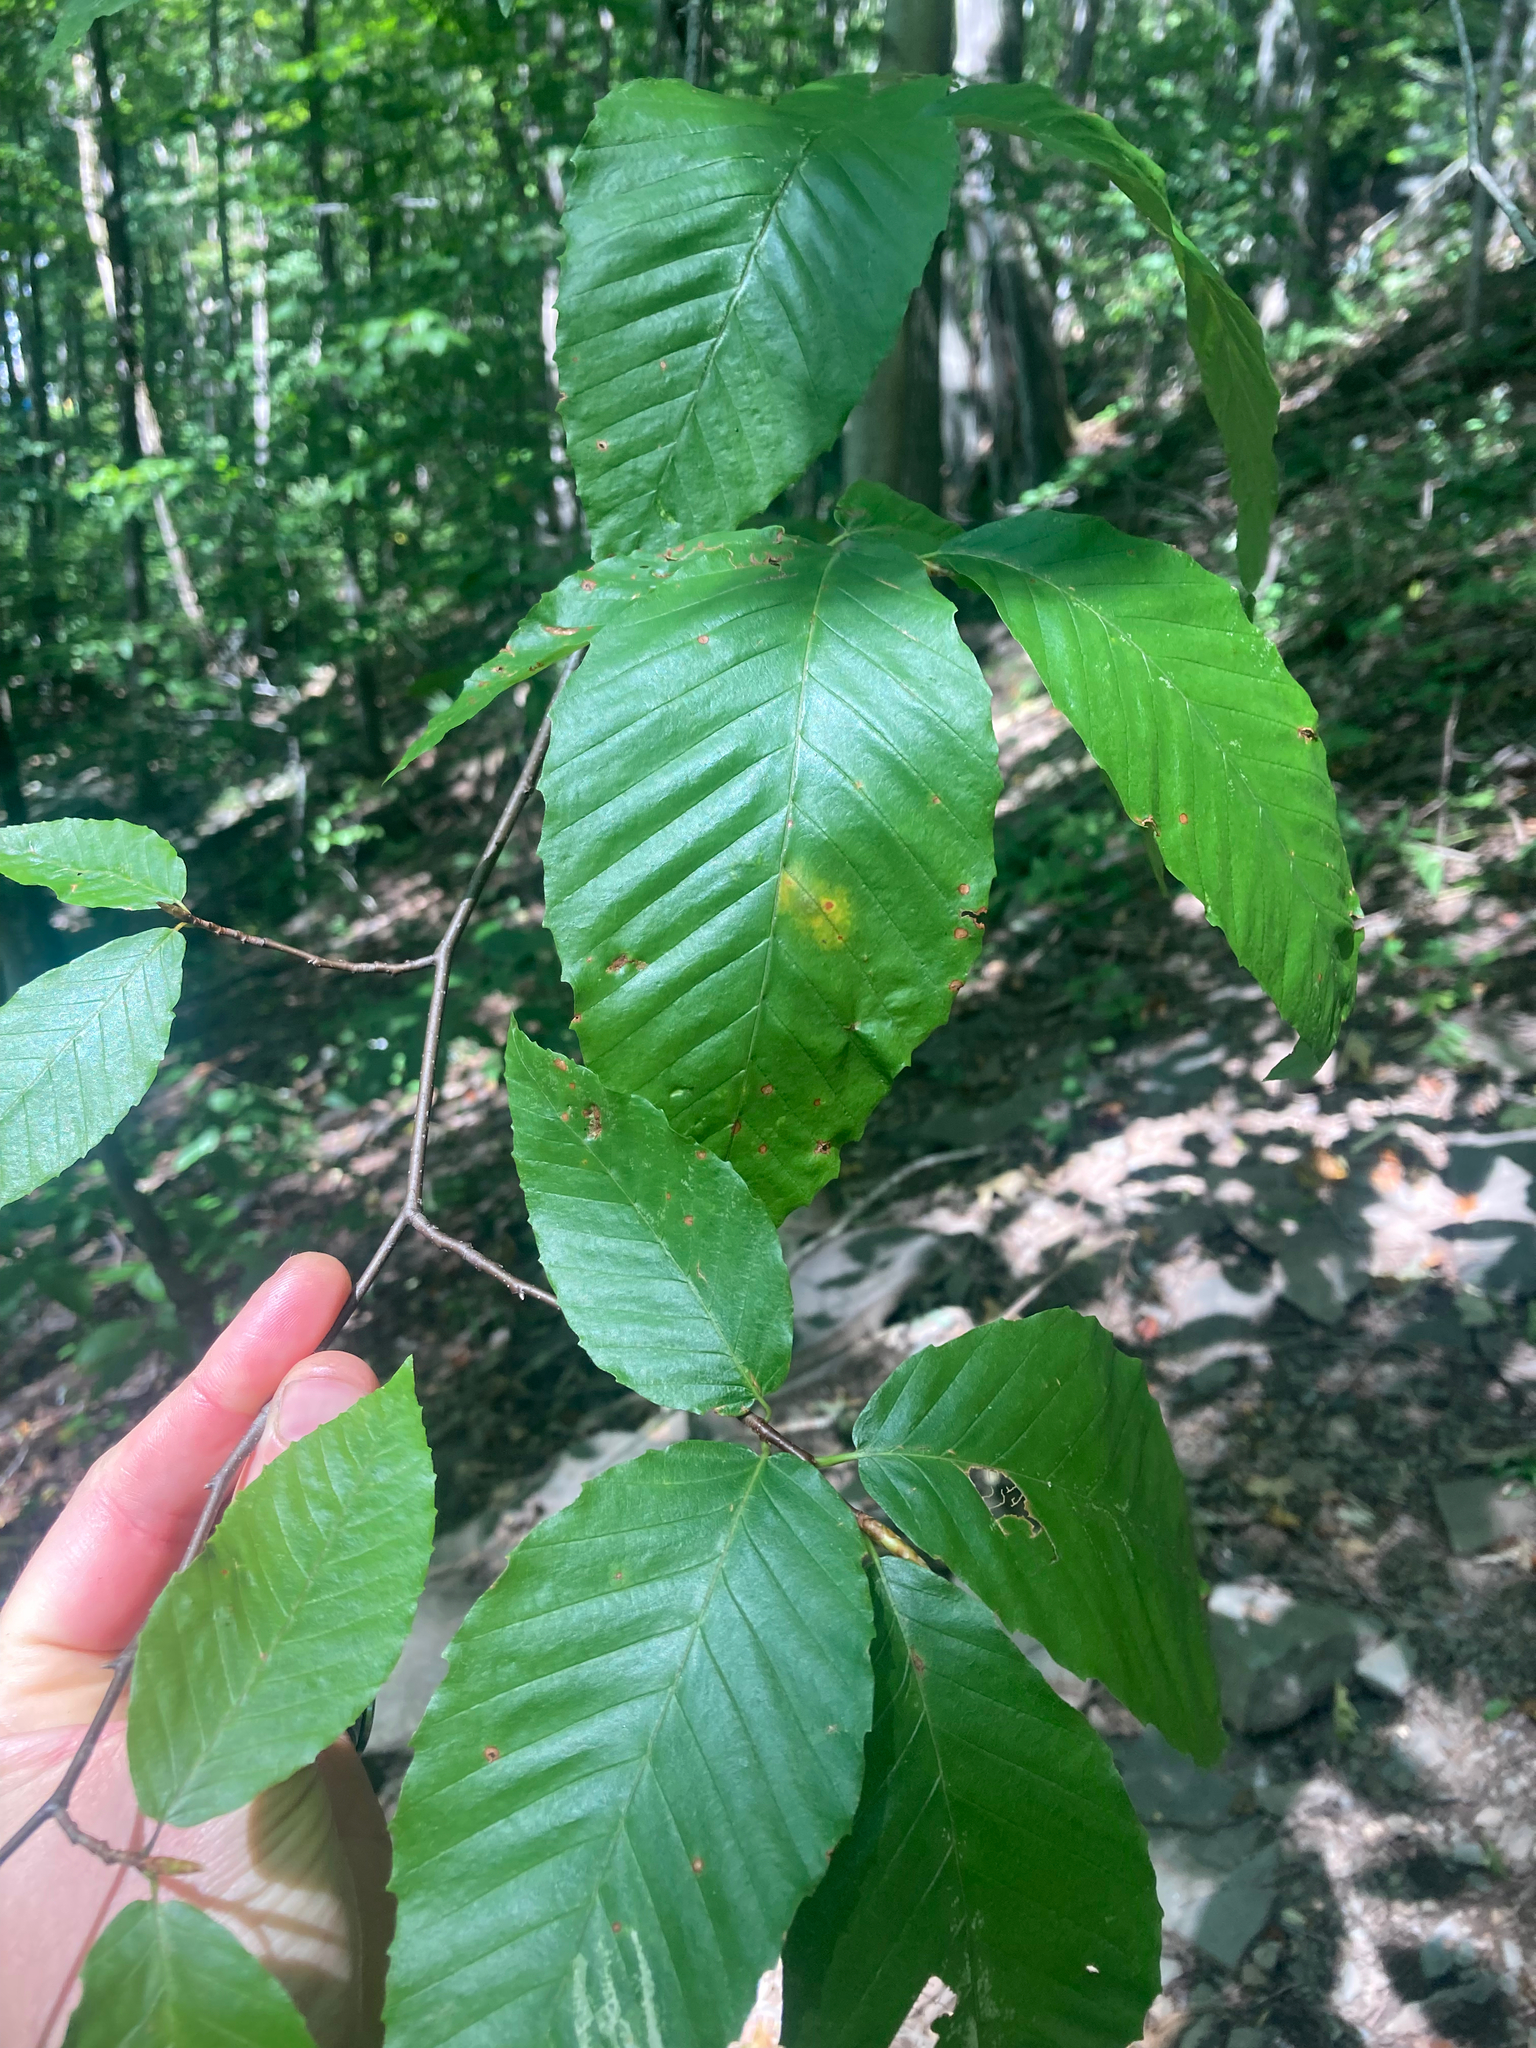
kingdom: Plantae
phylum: Tracheophyta
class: Magnoliopsida
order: Fagales
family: Fagaceae
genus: Fagus
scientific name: Fagus grandifolia
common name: American beech
